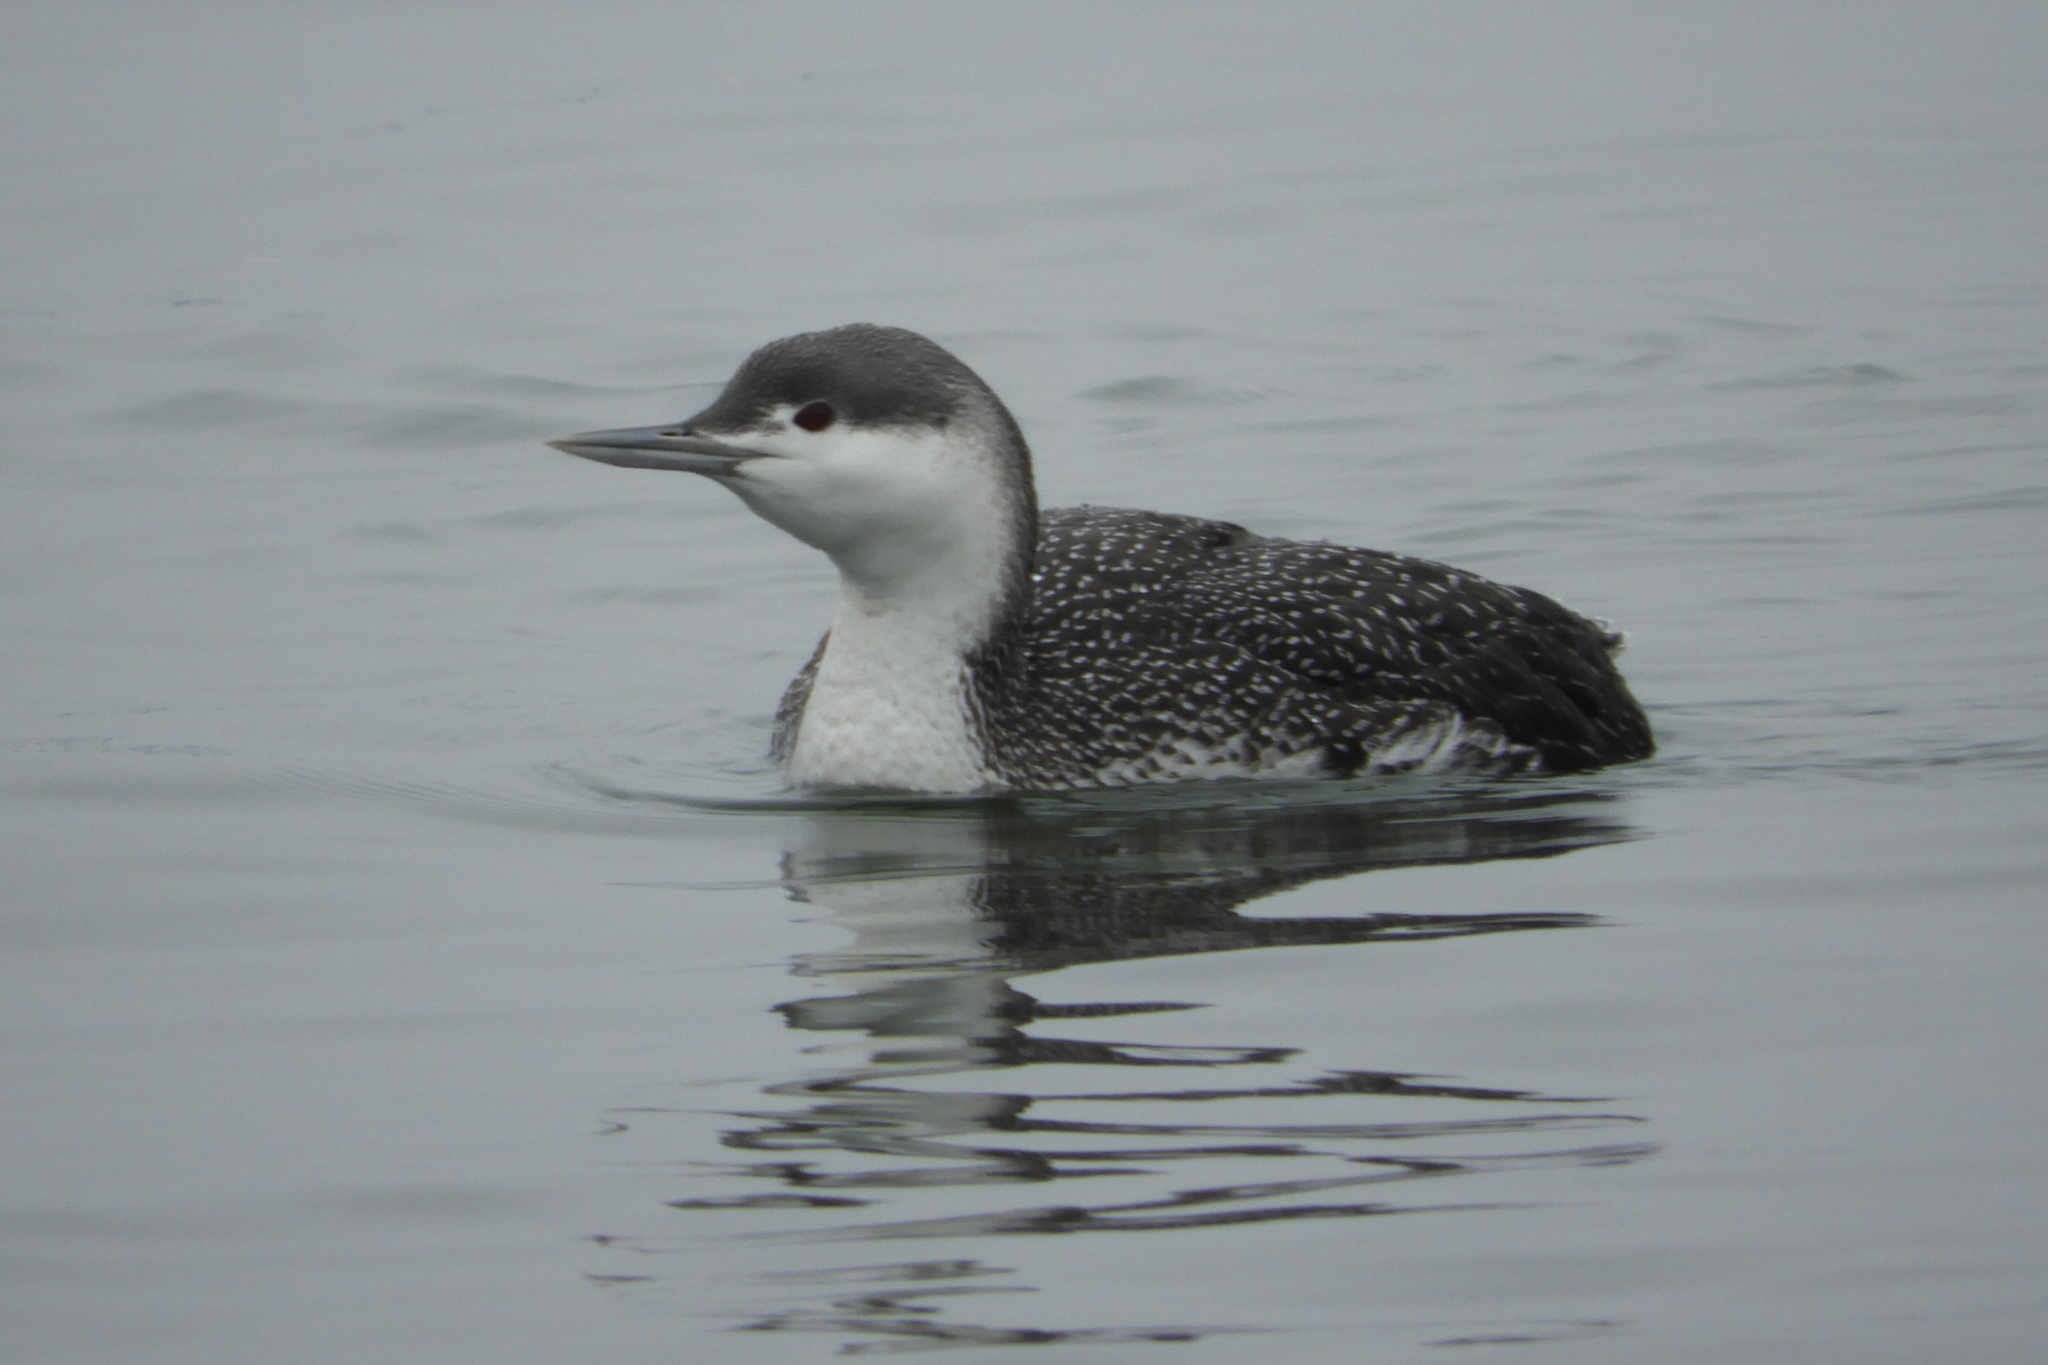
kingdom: Animalia
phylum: Chordata
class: Aves
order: Gaviiformes
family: Gaviidae
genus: Gavia
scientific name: Gavia stellata
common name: Red-throated loon
